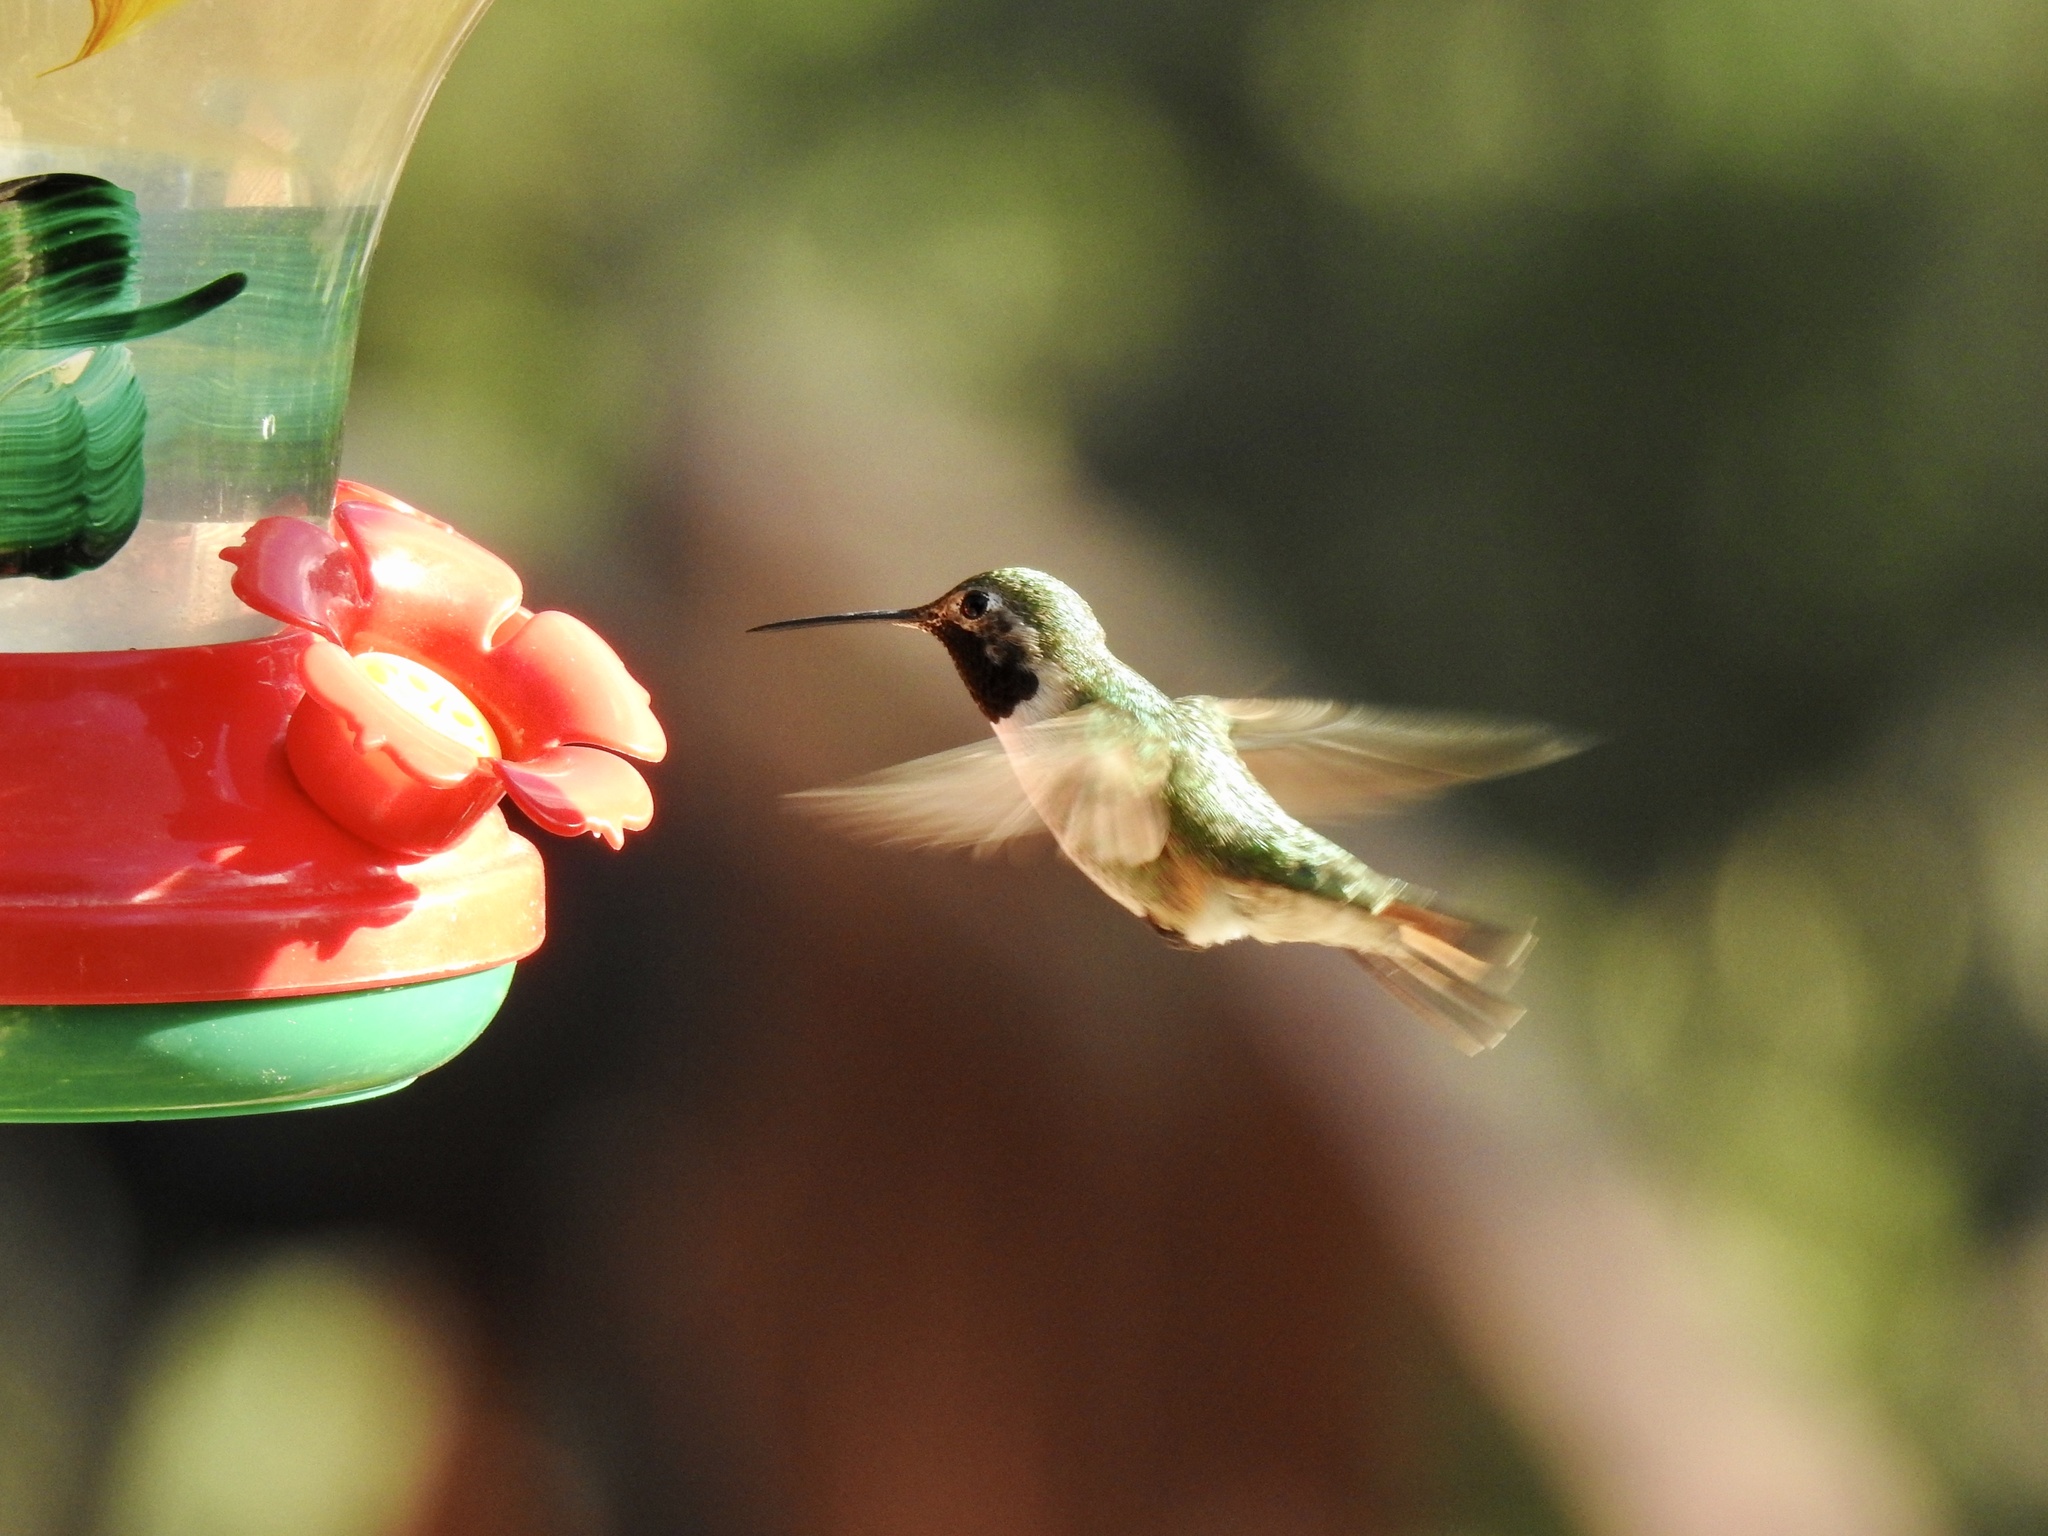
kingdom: Animalia
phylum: Chordata
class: Aves
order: Apodiformes
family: Trochilidae
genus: Selasphorus
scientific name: Selasphorus platycercus
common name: Broad-tailed hummingbird
